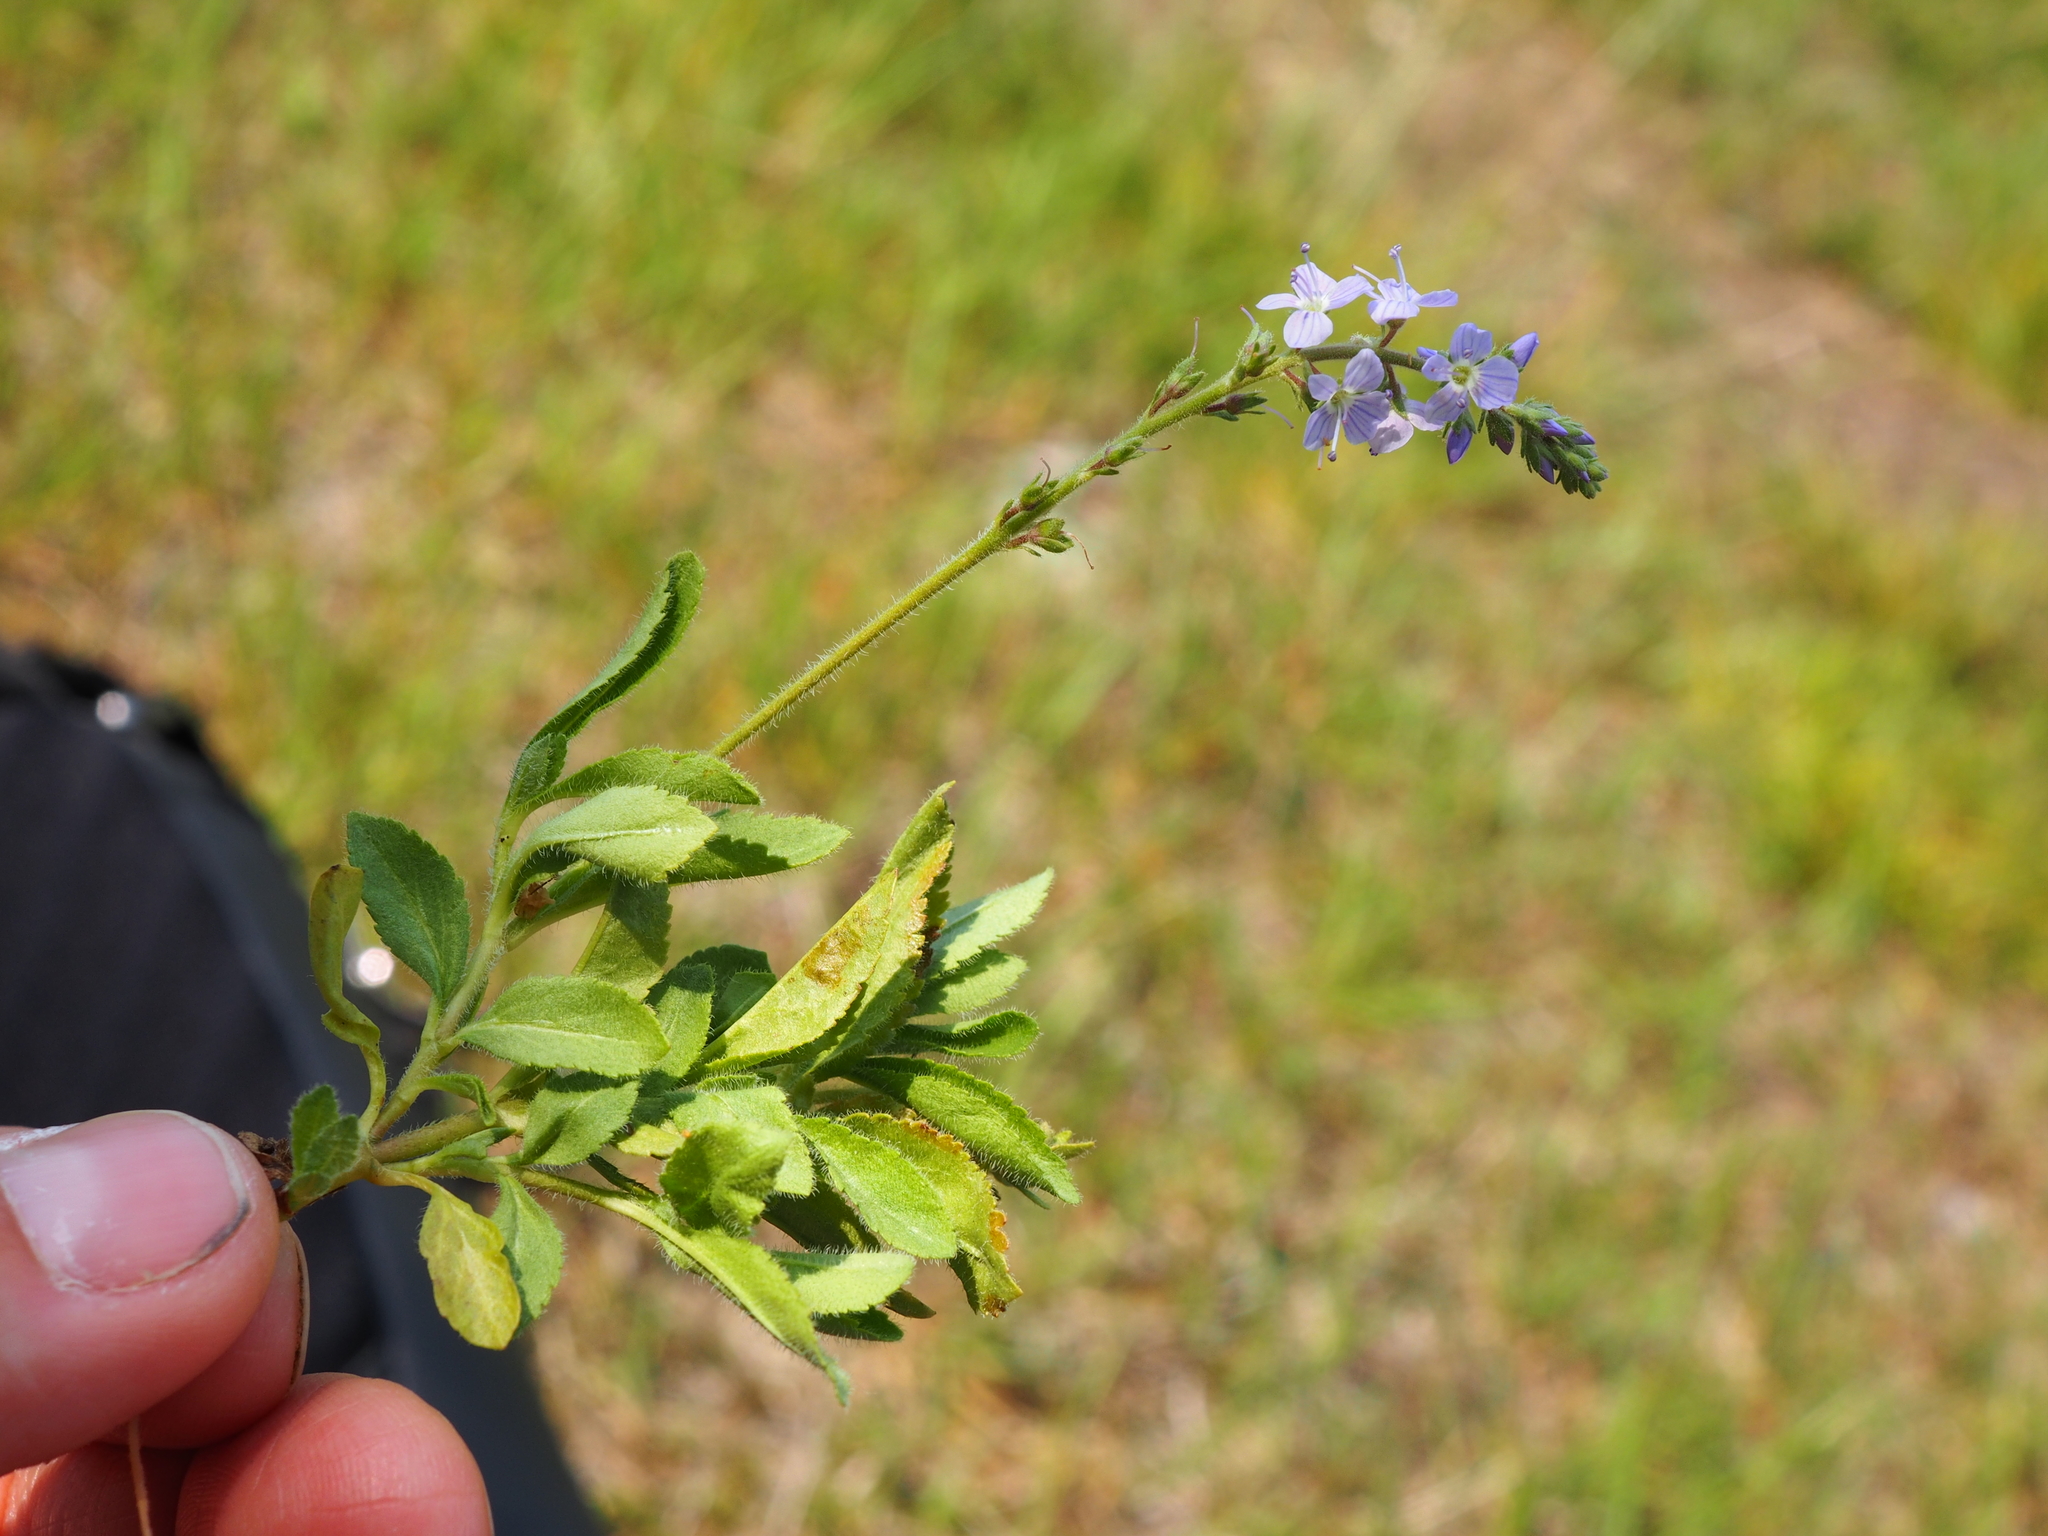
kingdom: Plantae
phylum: Tracheophyta
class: Magnoliopsida
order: Lamiales
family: Plantaginaceae
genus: Veronica
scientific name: Veronica officinalis
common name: Common speedwell
